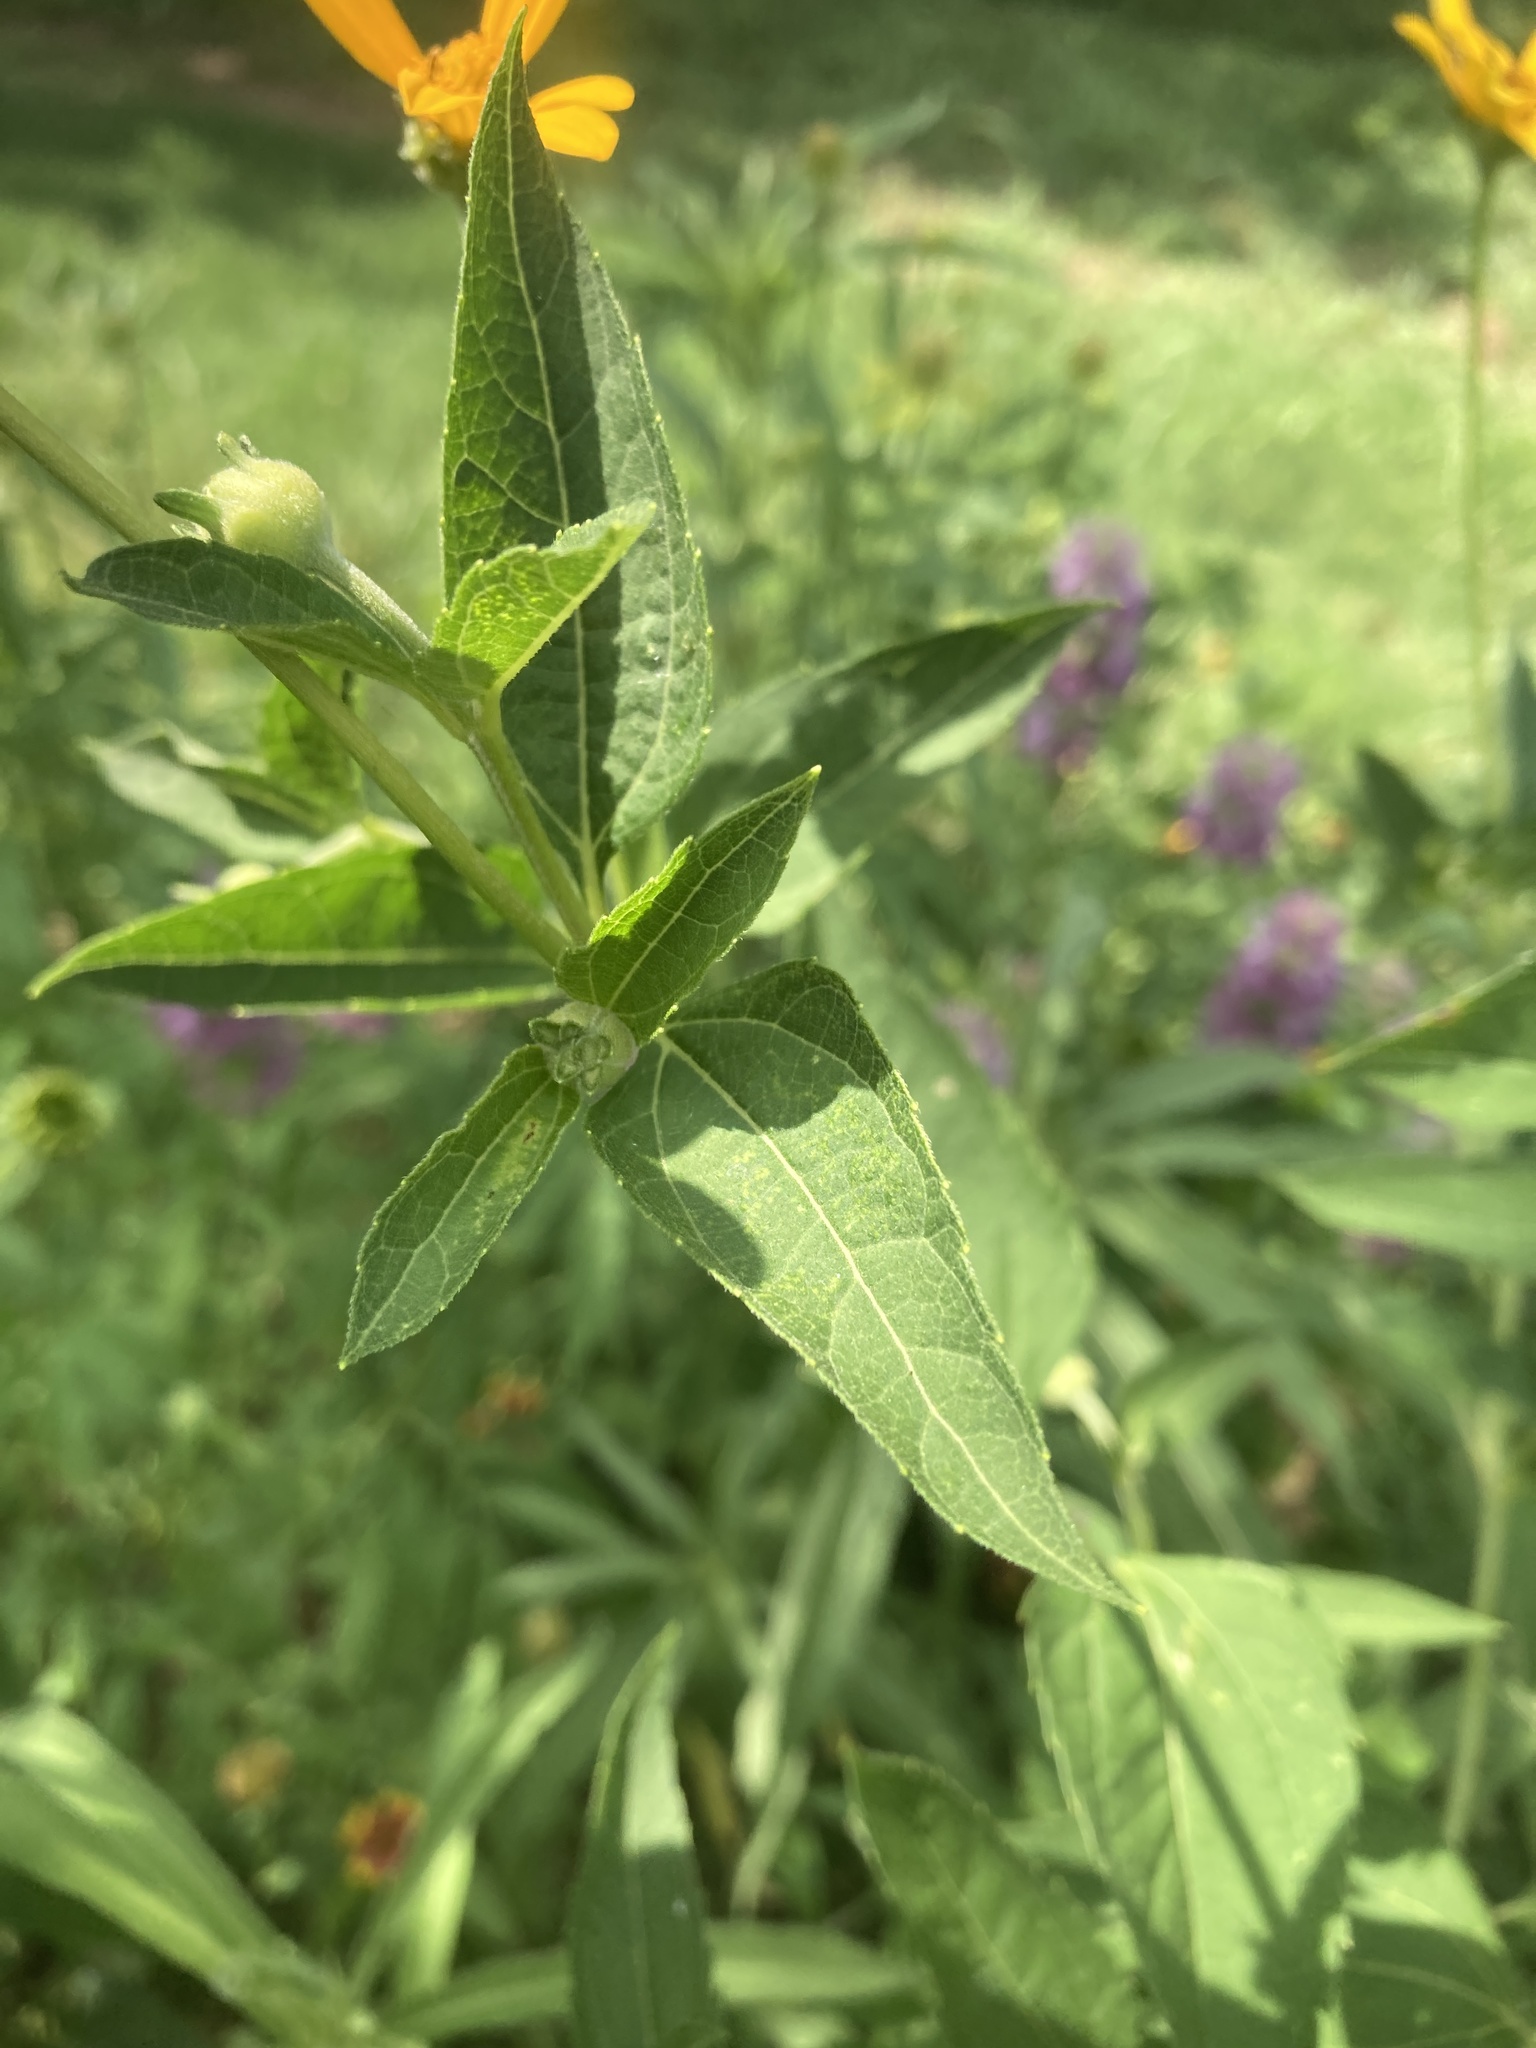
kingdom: Plantae
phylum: Tracheophyta
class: Magnoliopsida
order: Asterales
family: Asteraceae
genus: Heliopsis
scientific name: Heliopsis helianthoides
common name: False sunflower
